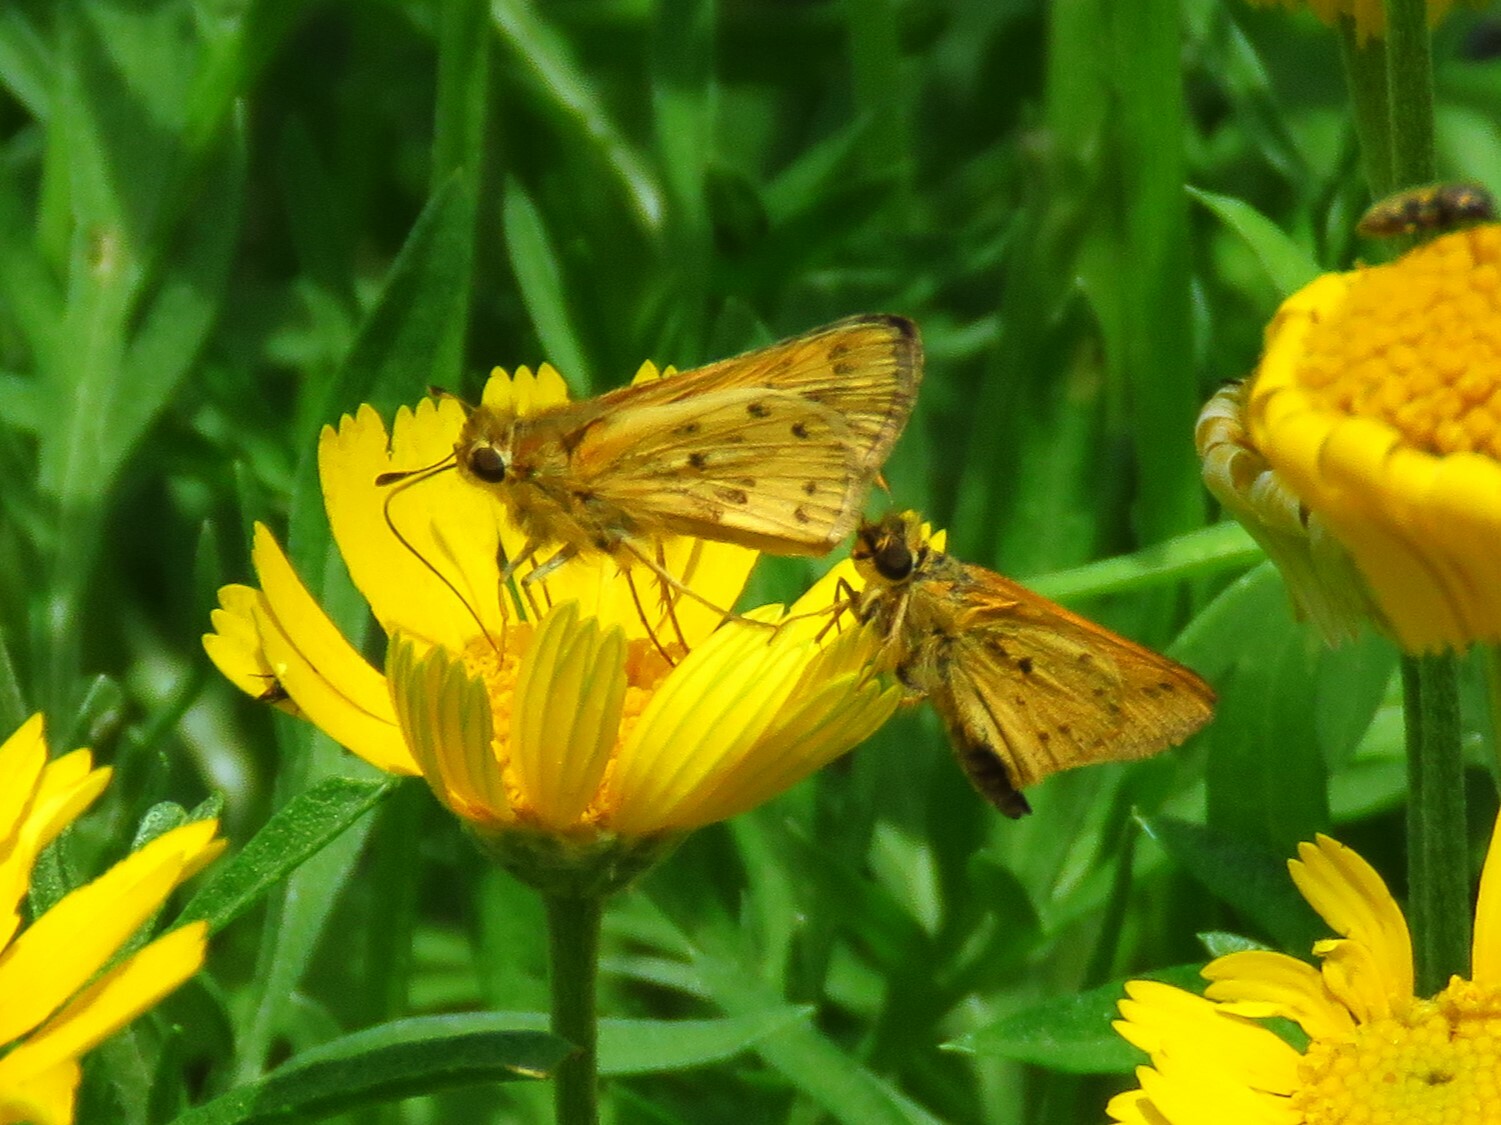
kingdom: Animalia
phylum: Arthropoda
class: Insecta
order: Lepidoptera
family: Hesperiidae
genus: Hylephila
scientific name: Hylephila phyleus
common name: Fiery skipper
